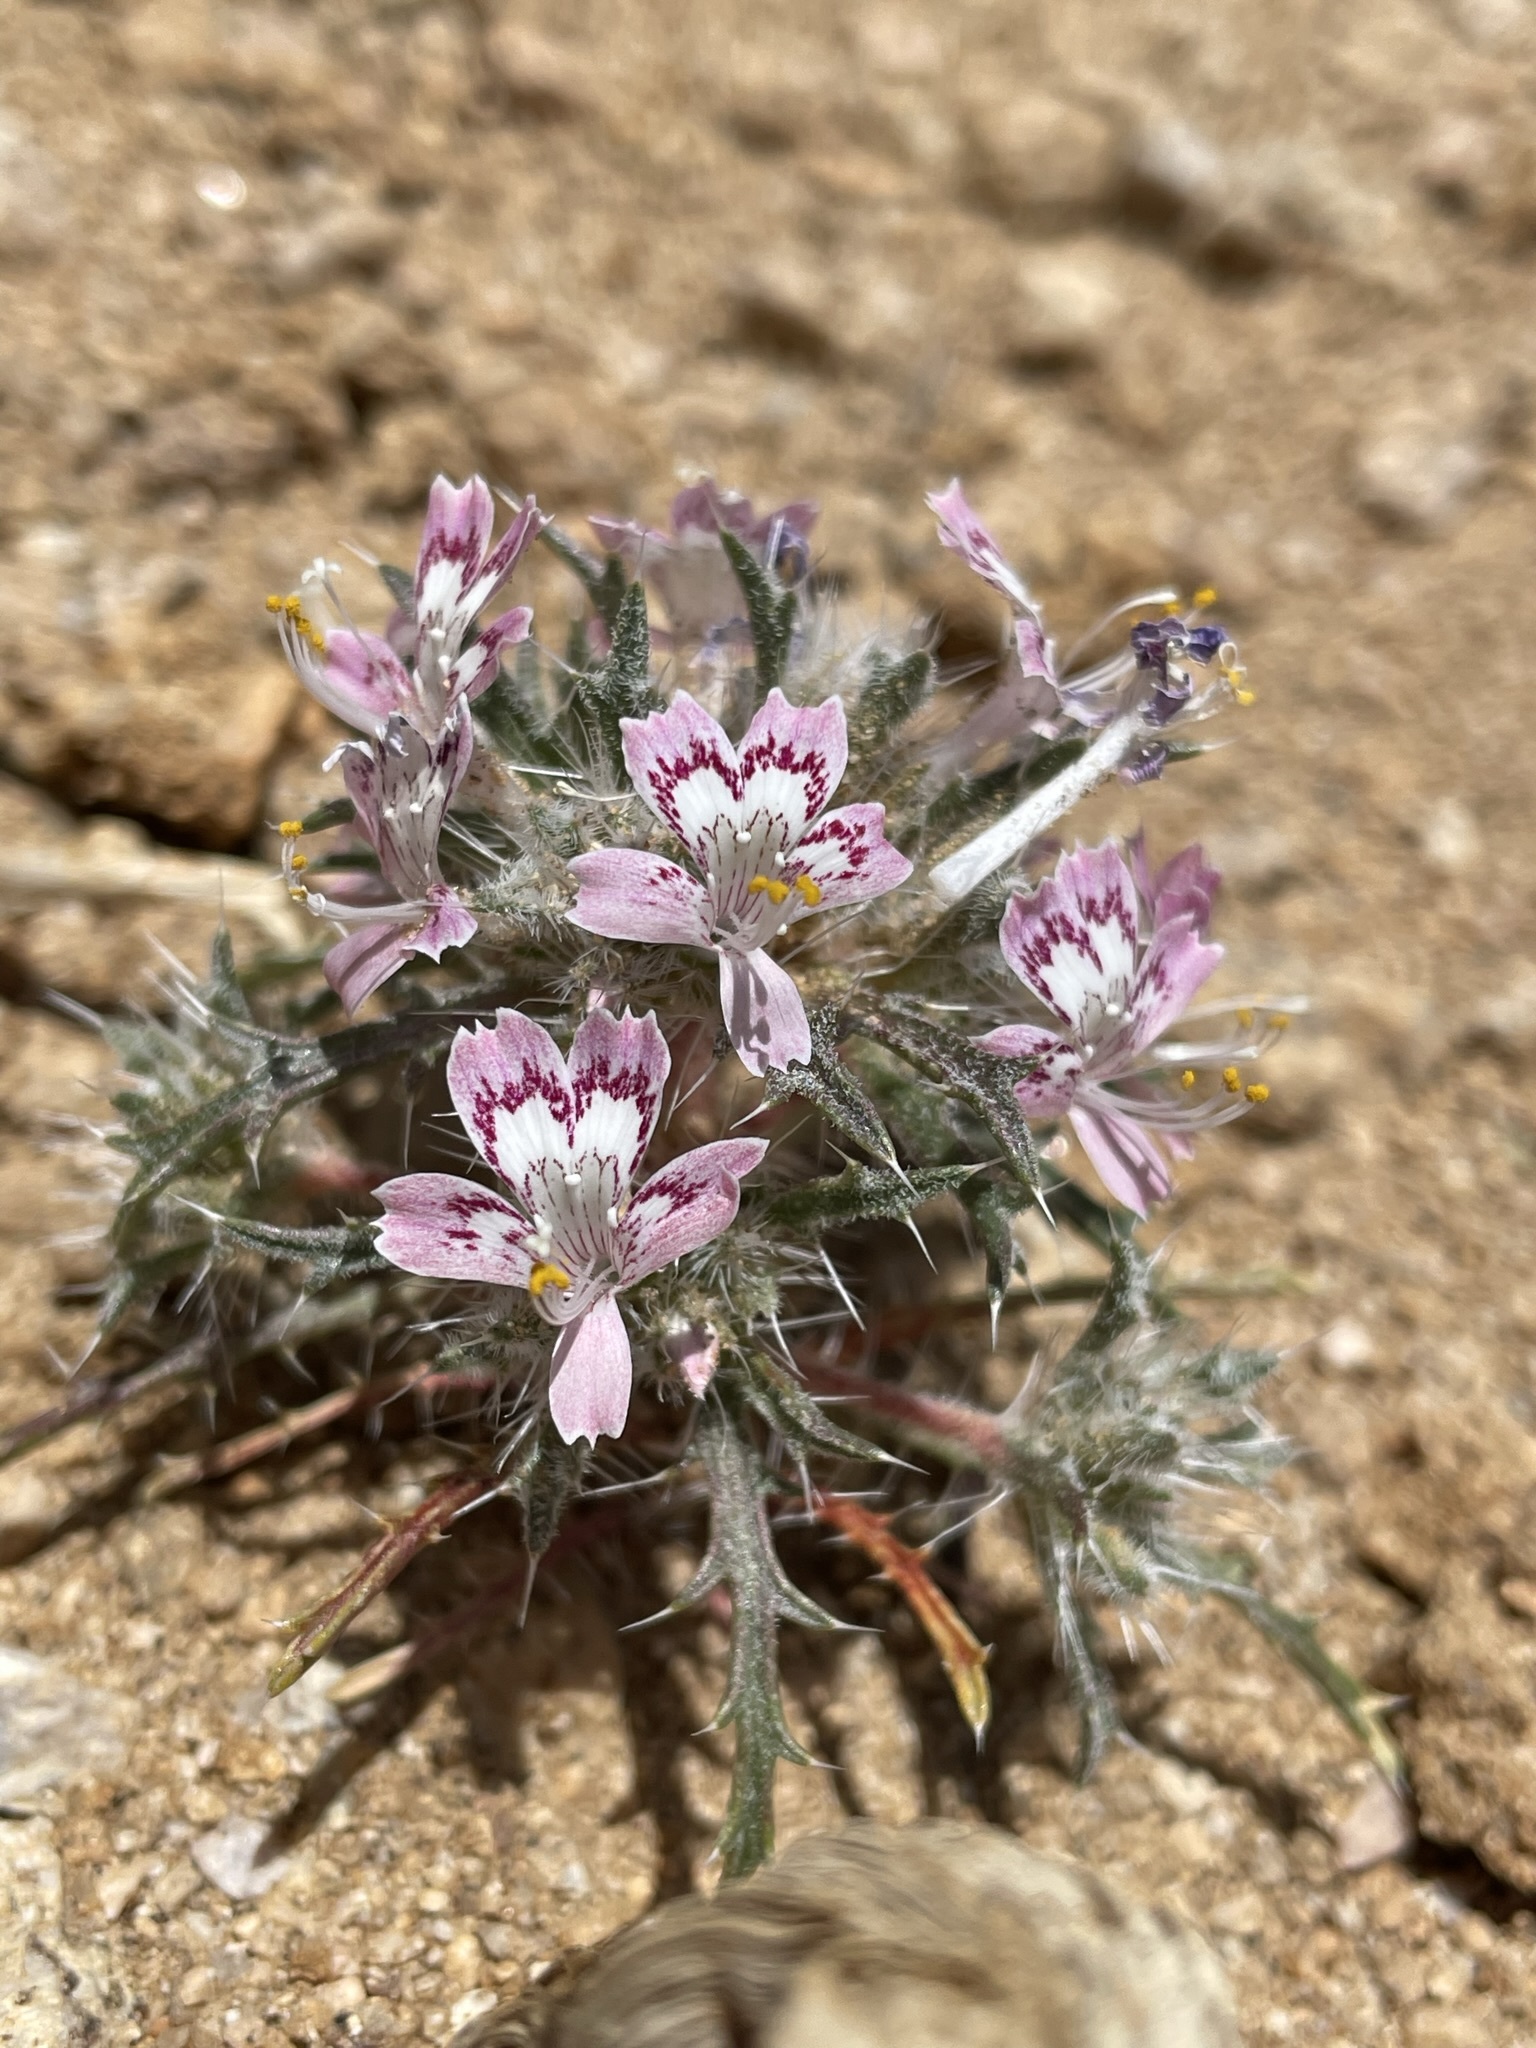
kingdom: Plantae
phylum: Tracheophyta
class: Magnoliopsida
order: Ericales
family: Polemoniaceae
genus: Loeseliastrum
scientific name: Loeseliastrum matthewsii
